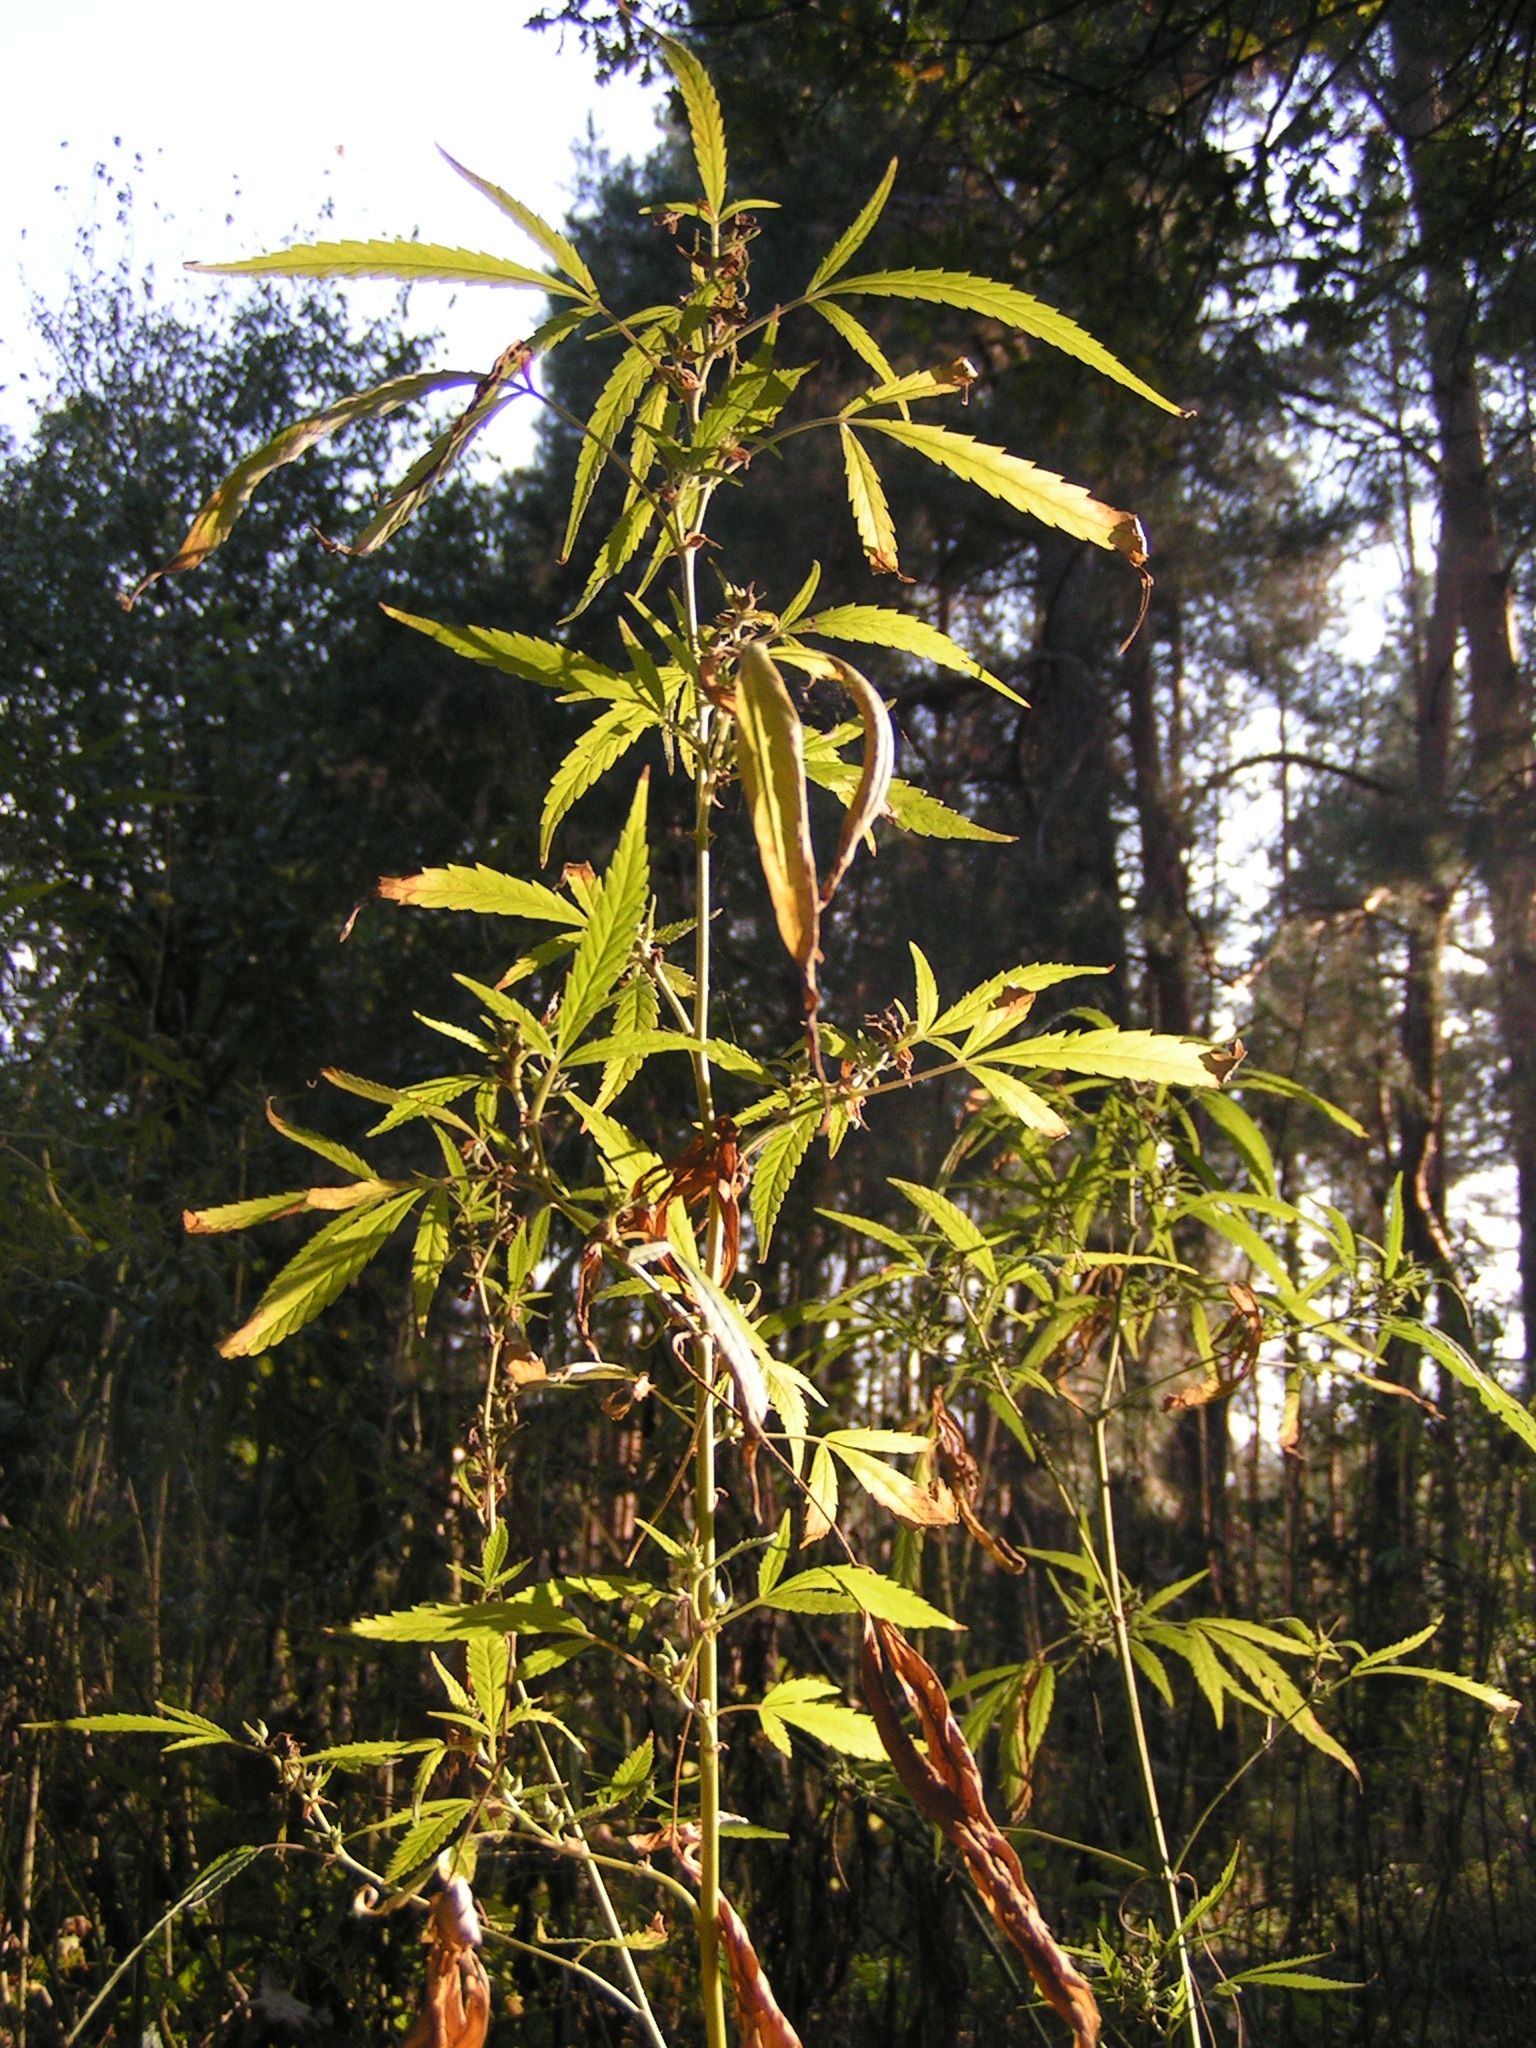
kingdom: Plantae
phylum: Tracheophyta
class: Magnoliopsida
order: Rosales
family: Cannabaceae
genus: Cannabis
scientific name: Cannabis sativa
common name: Hemp
